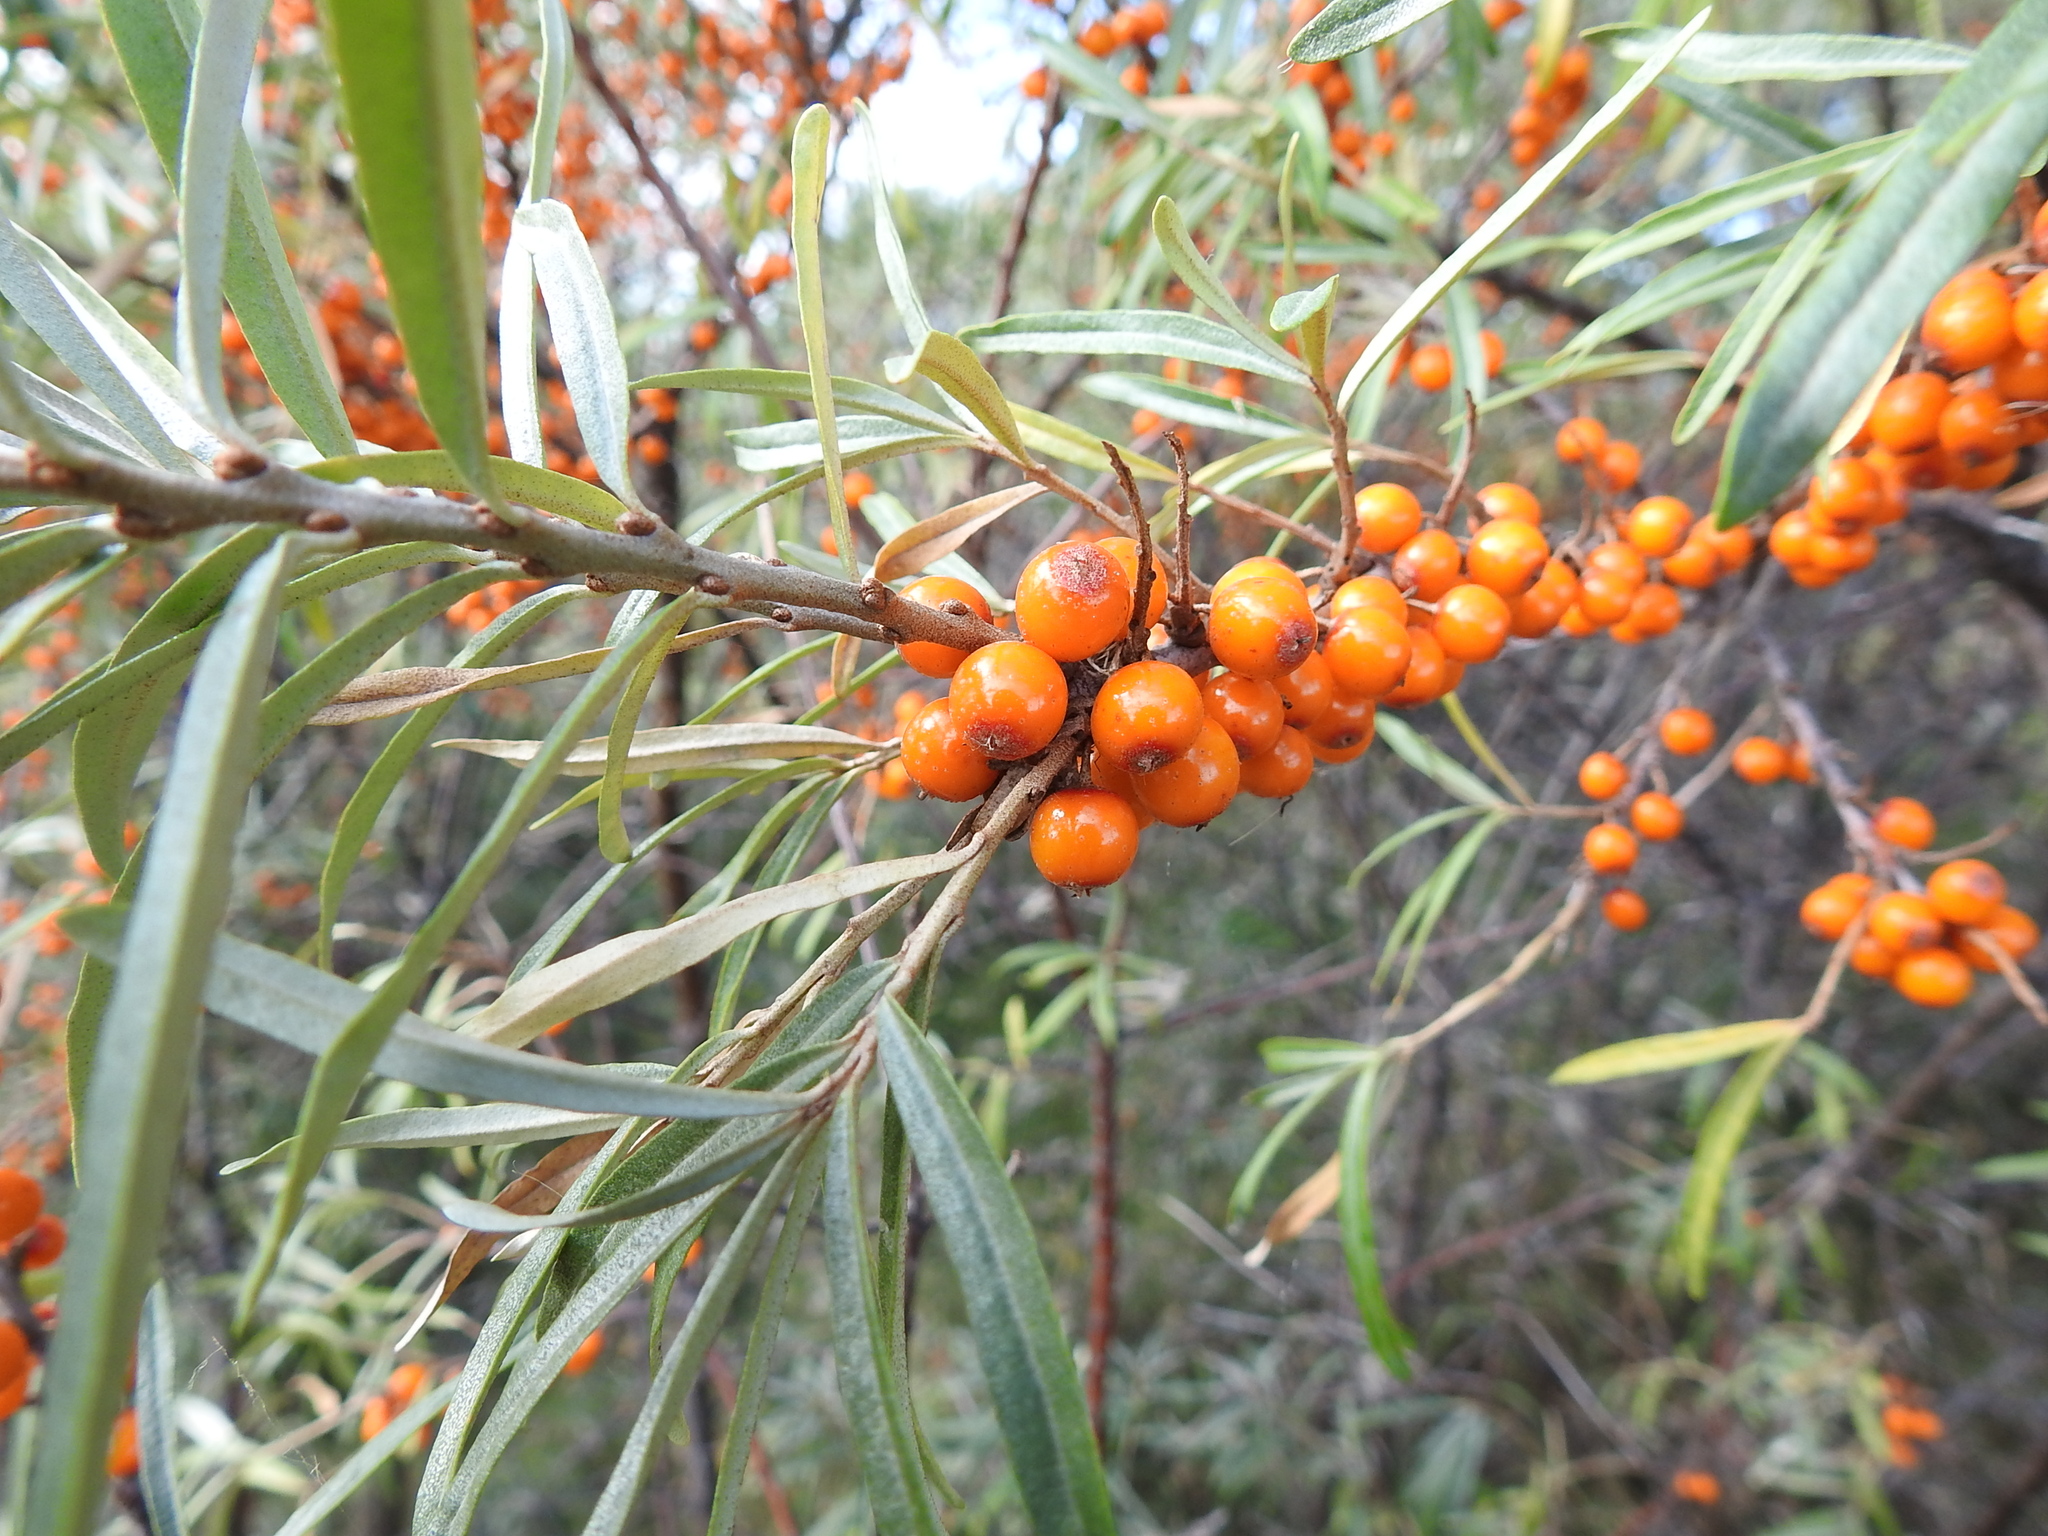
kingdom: Plantae
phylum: Tracheophyta
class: Magnoliopsida
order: Rosales
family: Elaeagnaceae
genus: Hippophae
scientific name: Hippophae rhamnoides
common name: Sea-buckthorn
